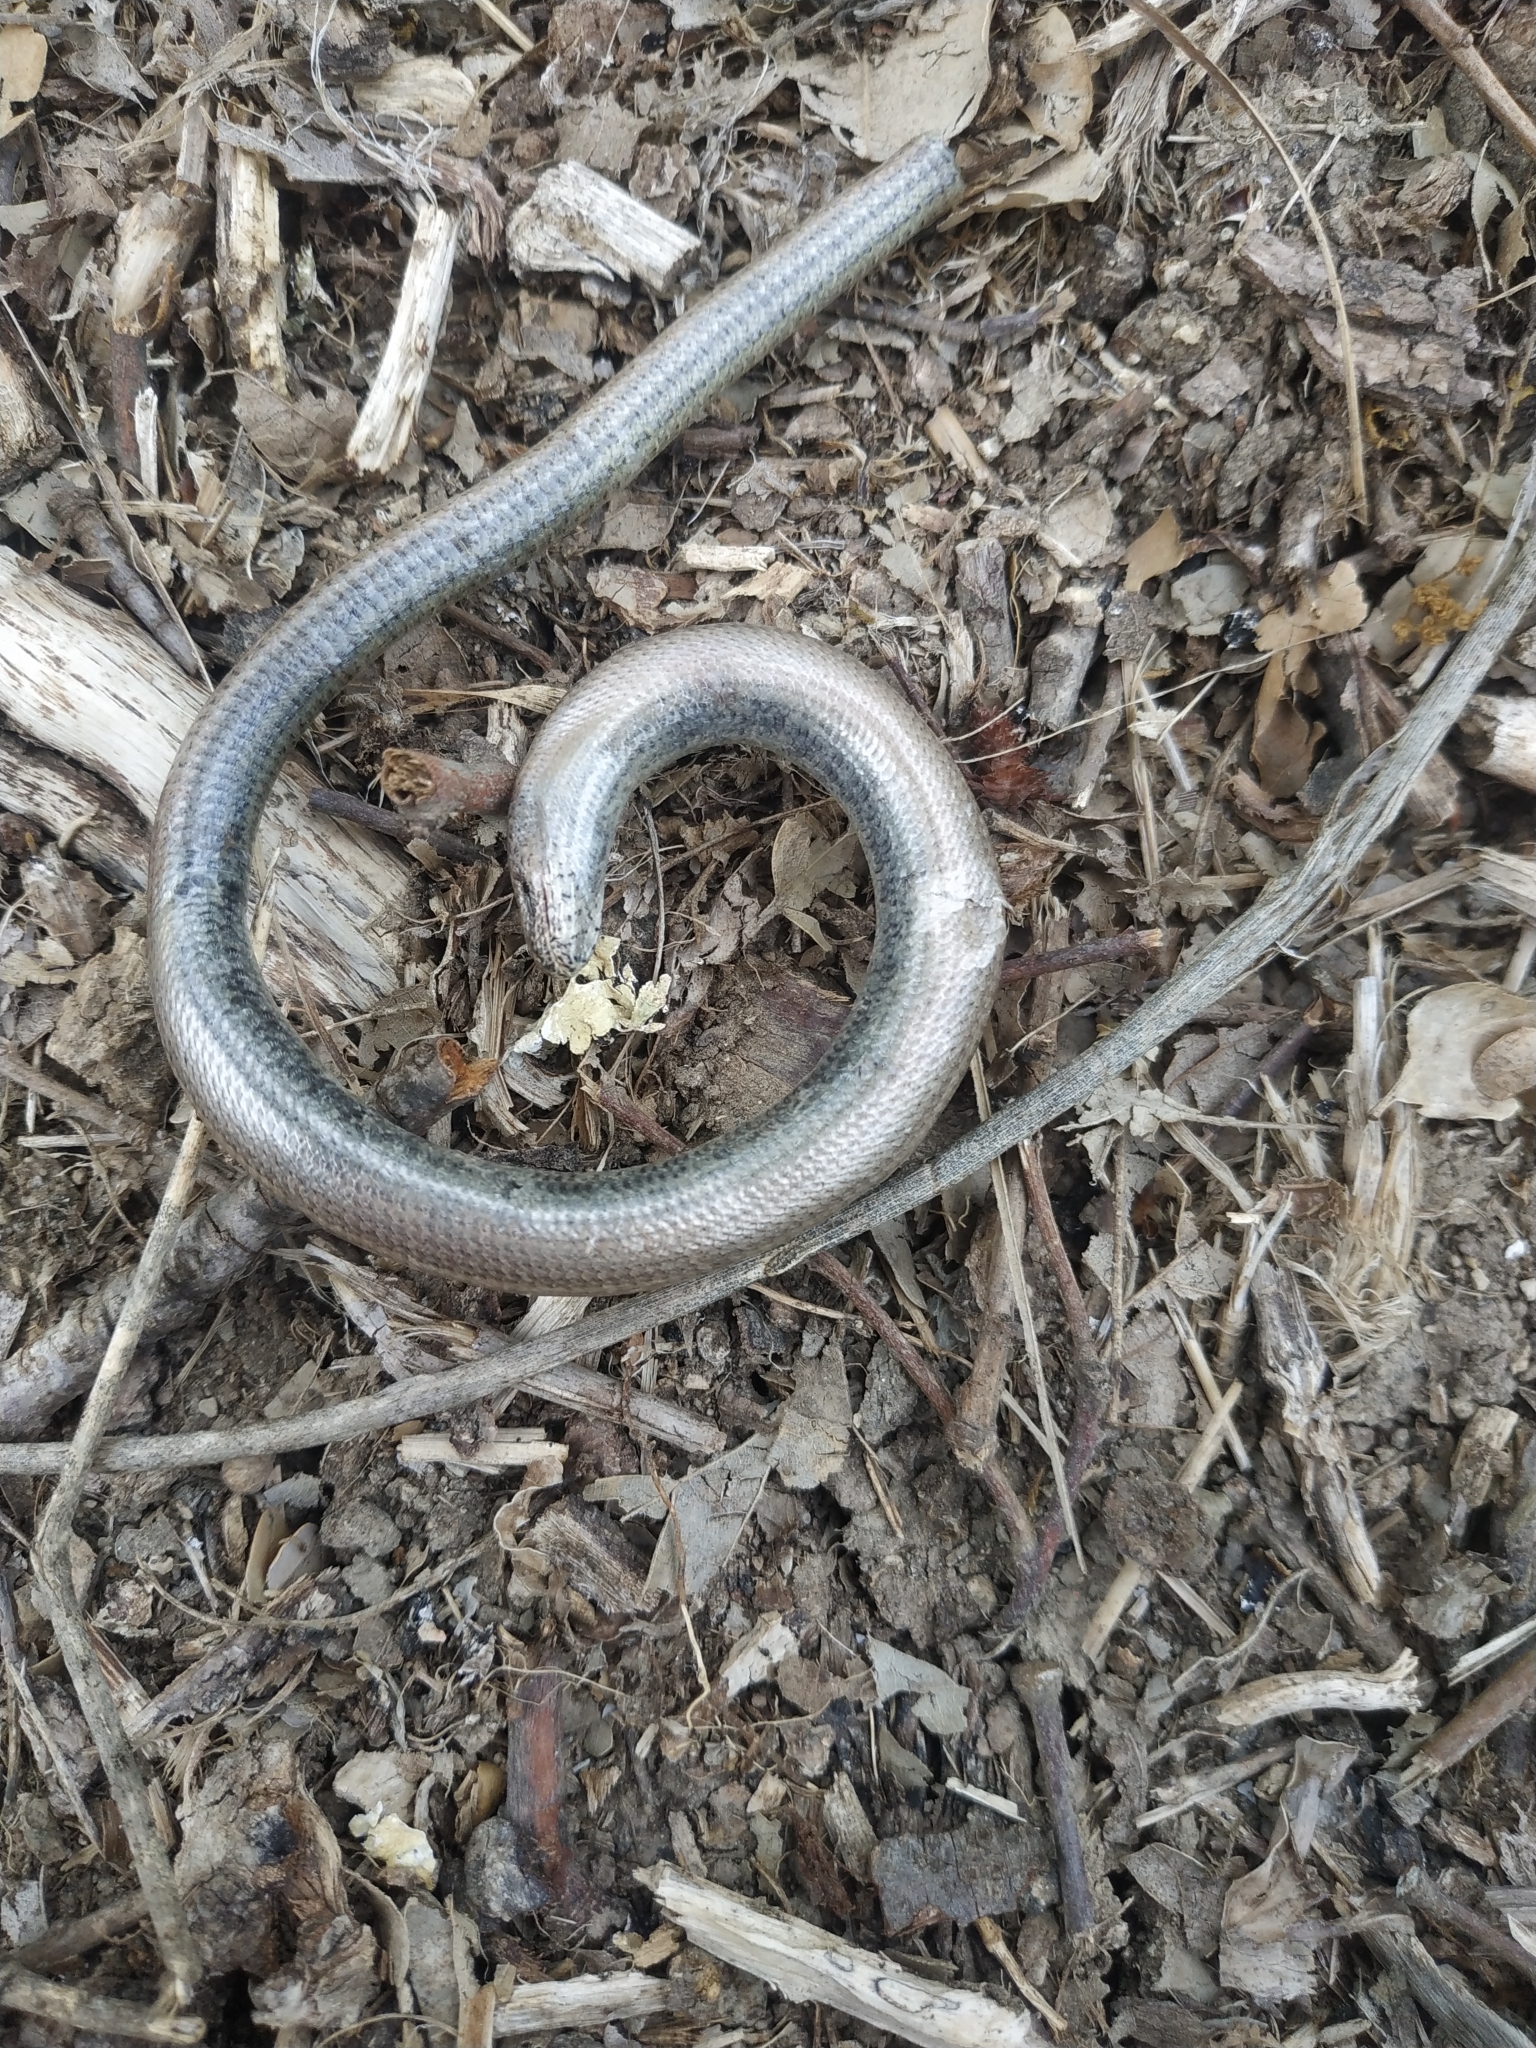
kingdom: Animalia
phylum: Chordata
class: Squamata
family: Anguidae
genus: Anguis
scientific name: Anguis veronensis
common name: Italian slow worm
